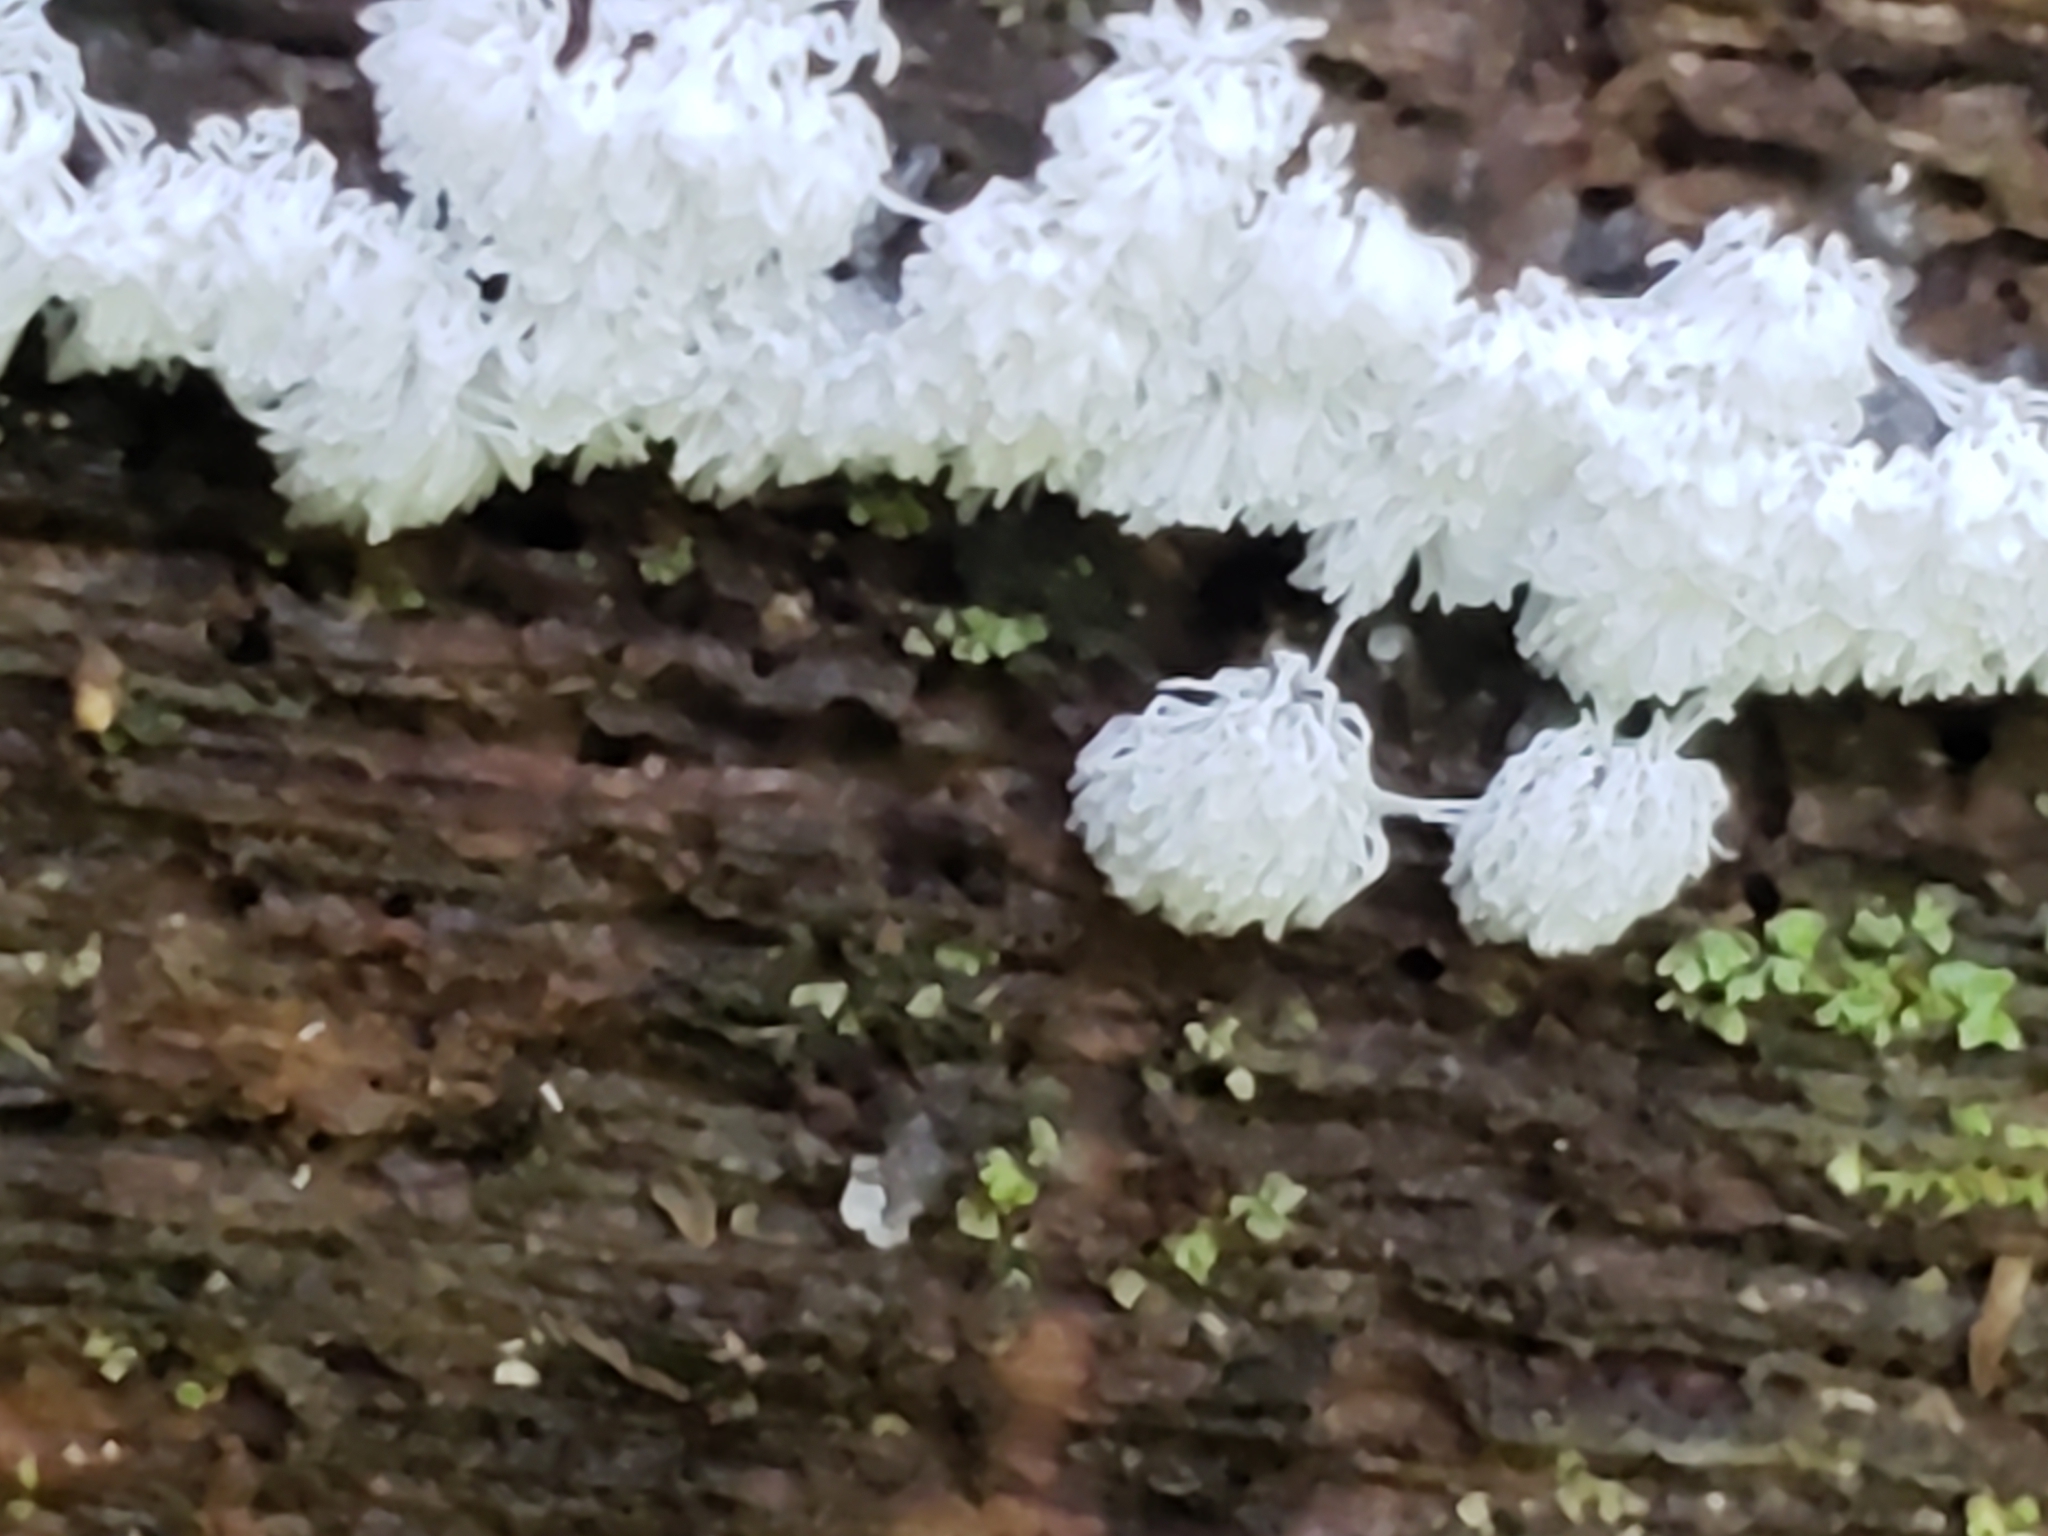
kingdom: Protozoa
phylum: Mycetozoa
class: Protosteliomycetes
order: Ceratiomyxales
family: Ceratiomyxaceae
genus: Ceratiomyxa
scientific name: Ceratiomyxa fruticulosa
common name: Honeycomb coral slime mold
